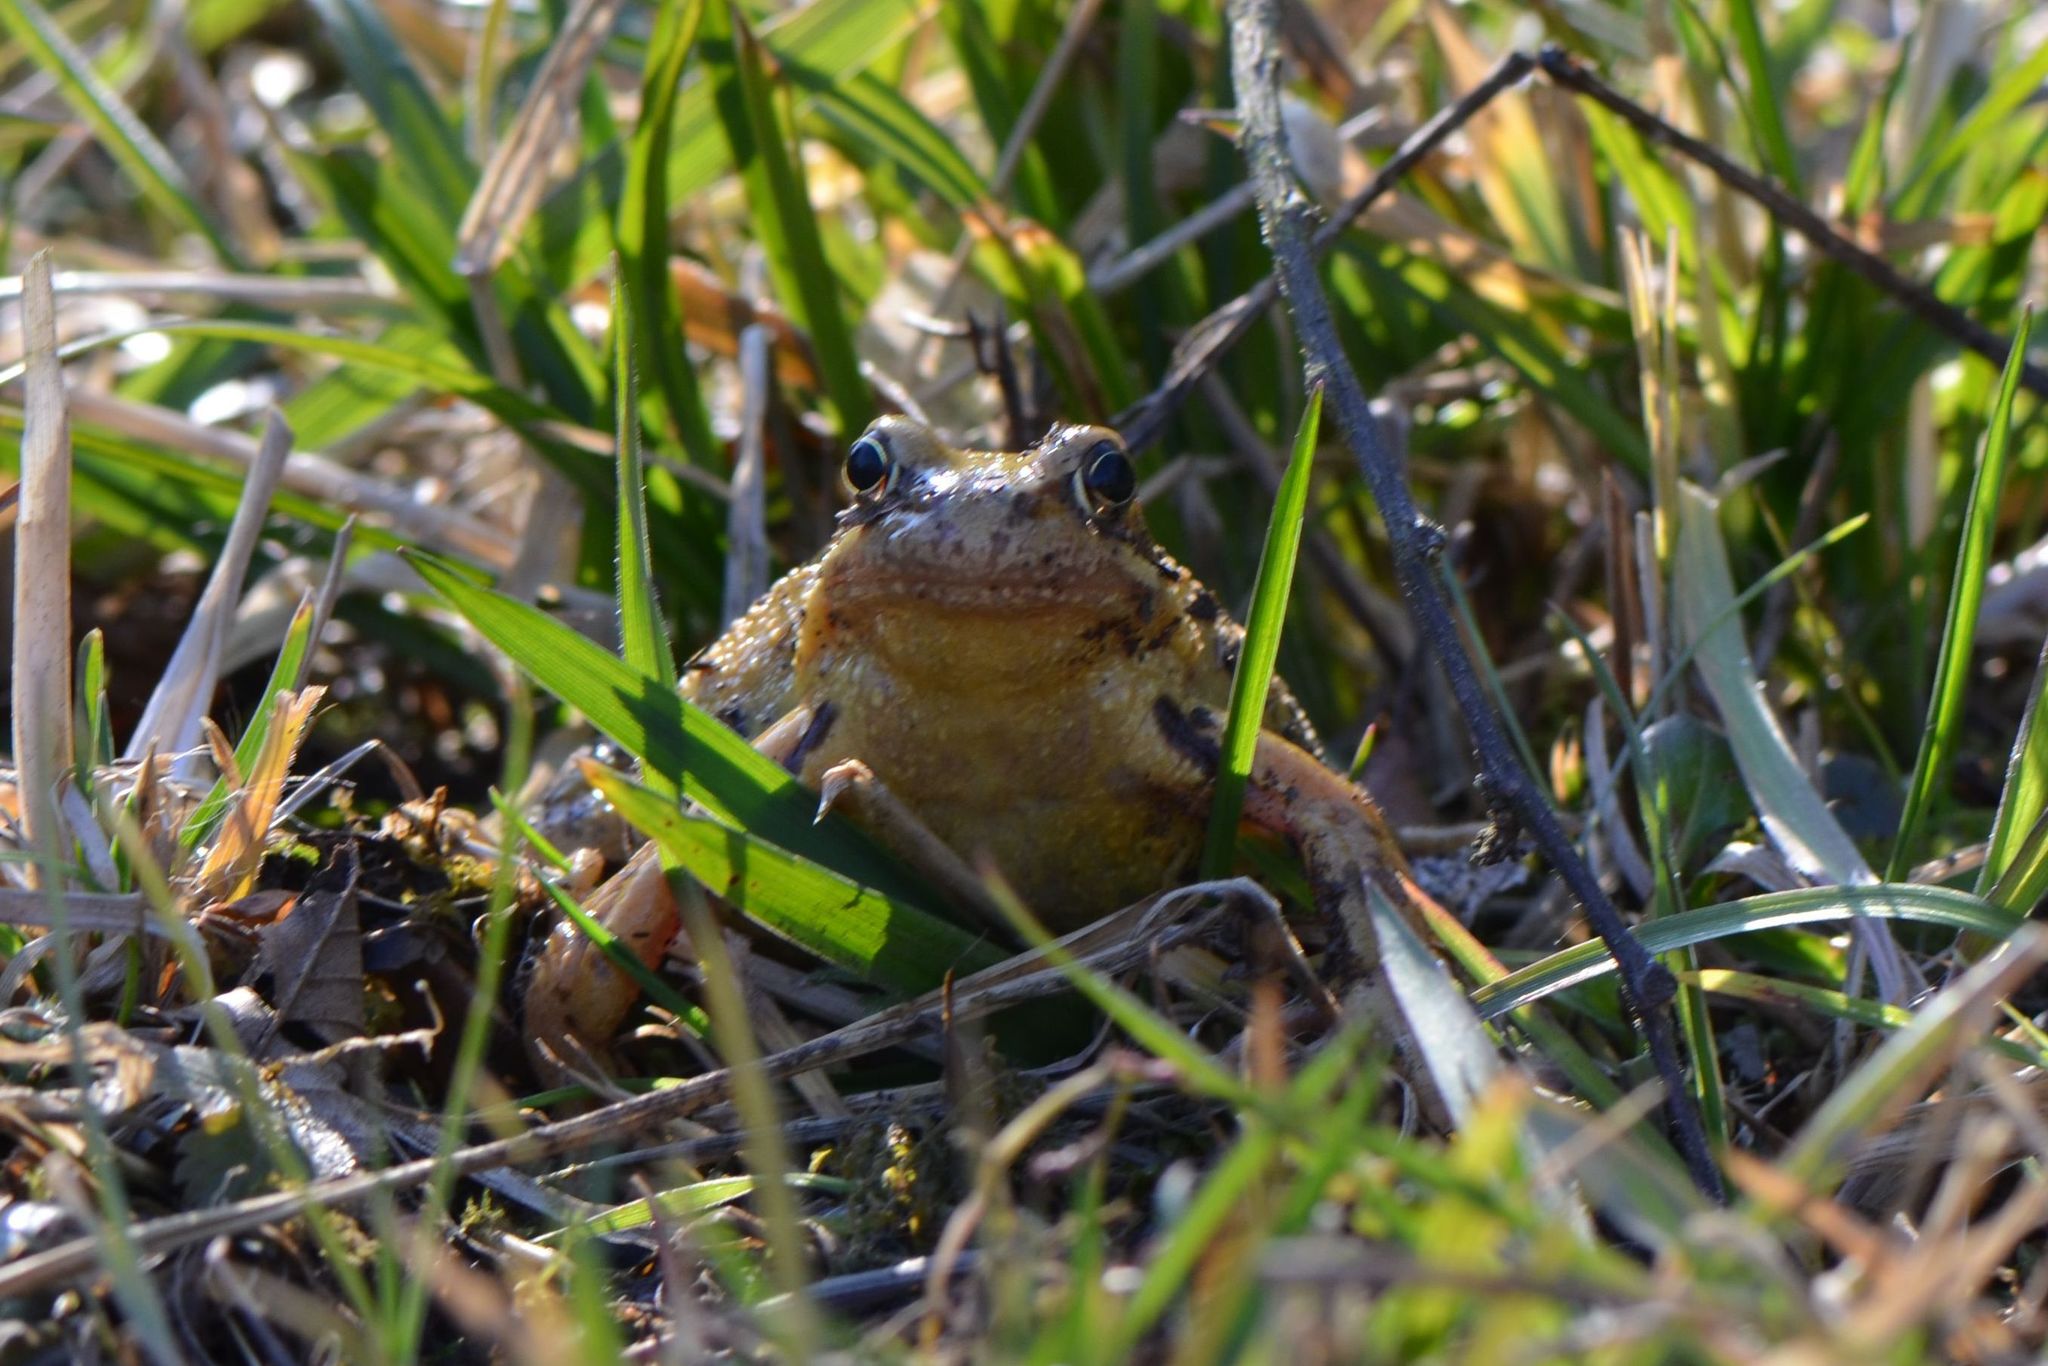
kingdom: Animalia
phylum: Chordata
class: Amphibia
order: Anura
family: Ranidae
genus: Rana
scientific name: Rana temporaria
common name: Common frog
